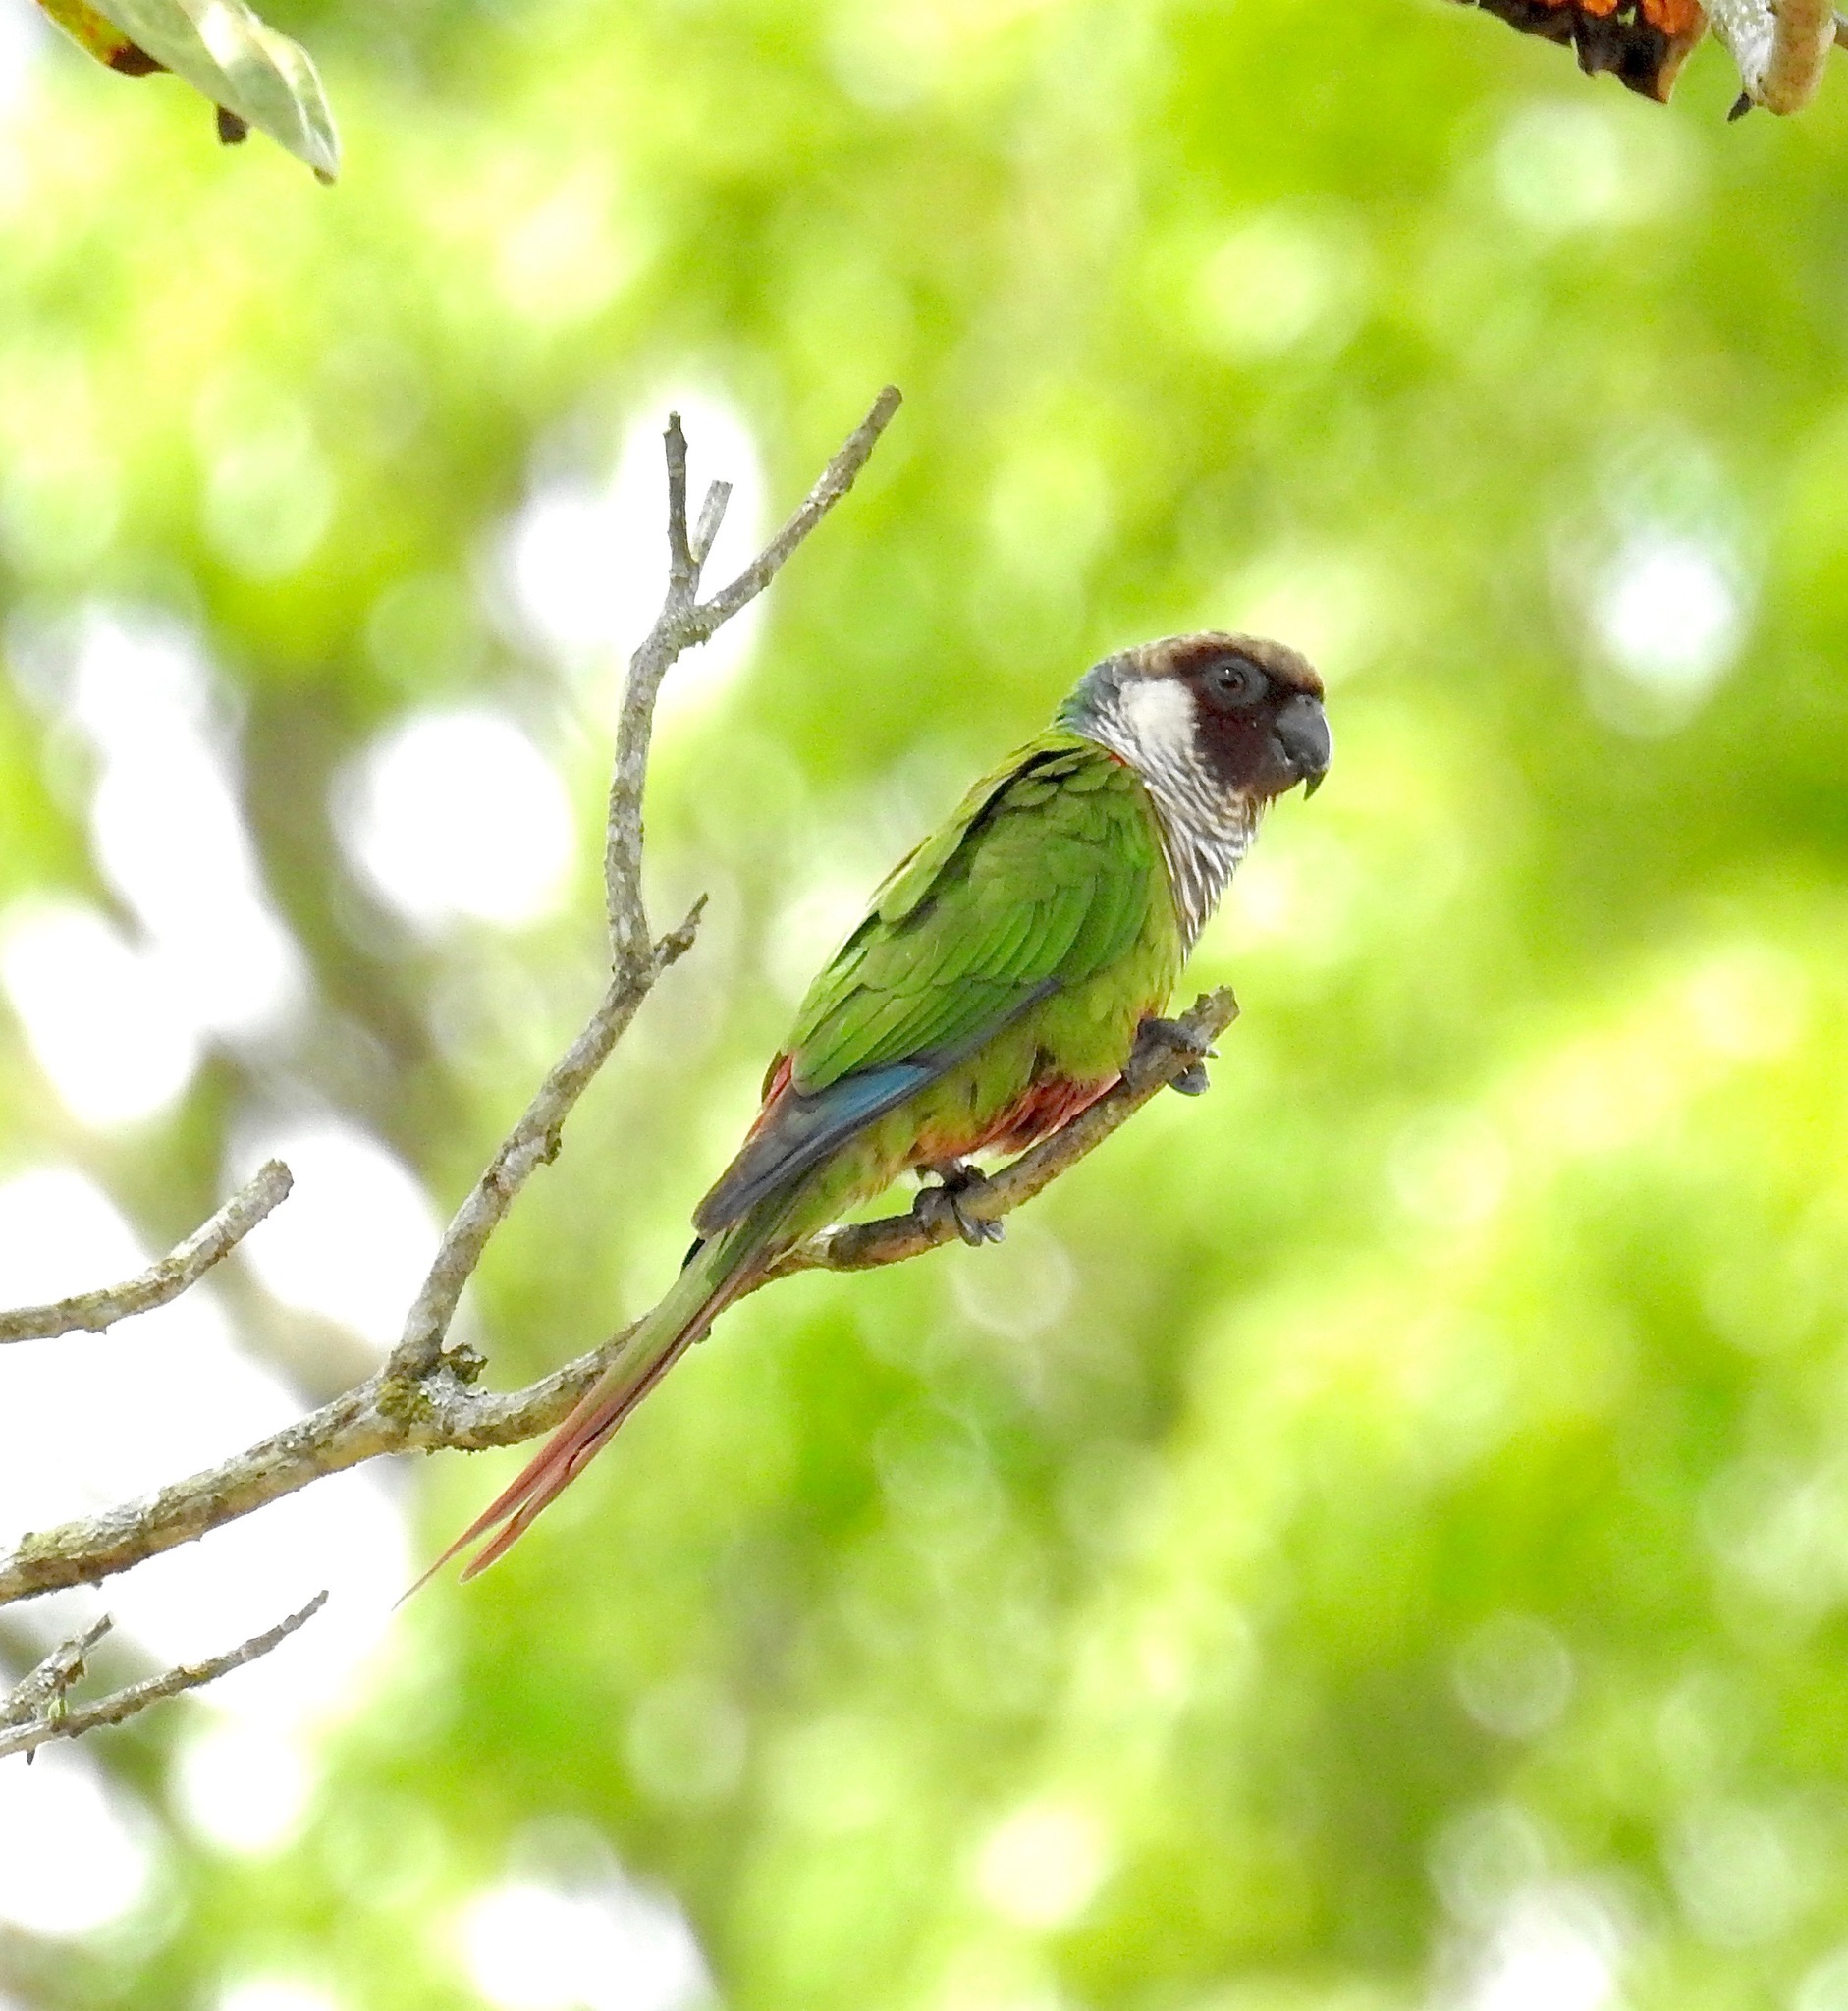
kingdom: Animalia
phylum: Chordata
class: Aves
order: Psittaciformes
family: Psittacidae
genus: Pyrrhura
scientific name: Pyrrhura griseipectus
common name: Gray-breasted parakeet
